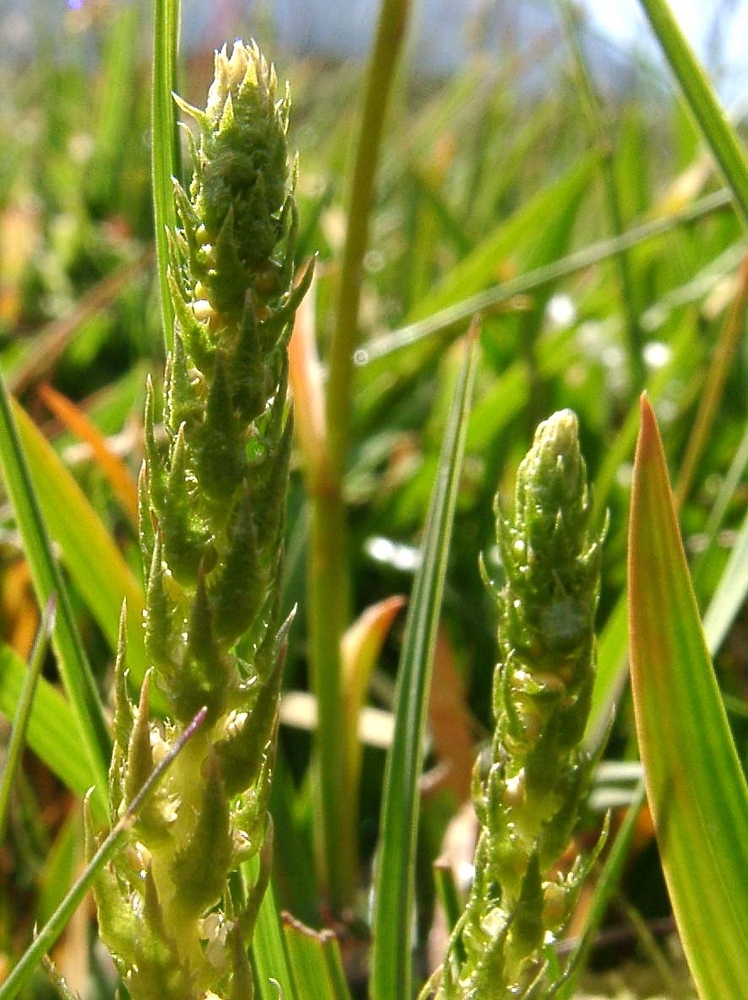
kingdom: Plantae
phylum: Tracheophyta
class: Lycopodiopsida
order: Selaginellales
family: Selaginellaceae
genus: Selaginella
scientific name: Selaginella selaginoides
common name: Prickly mountain-moss
